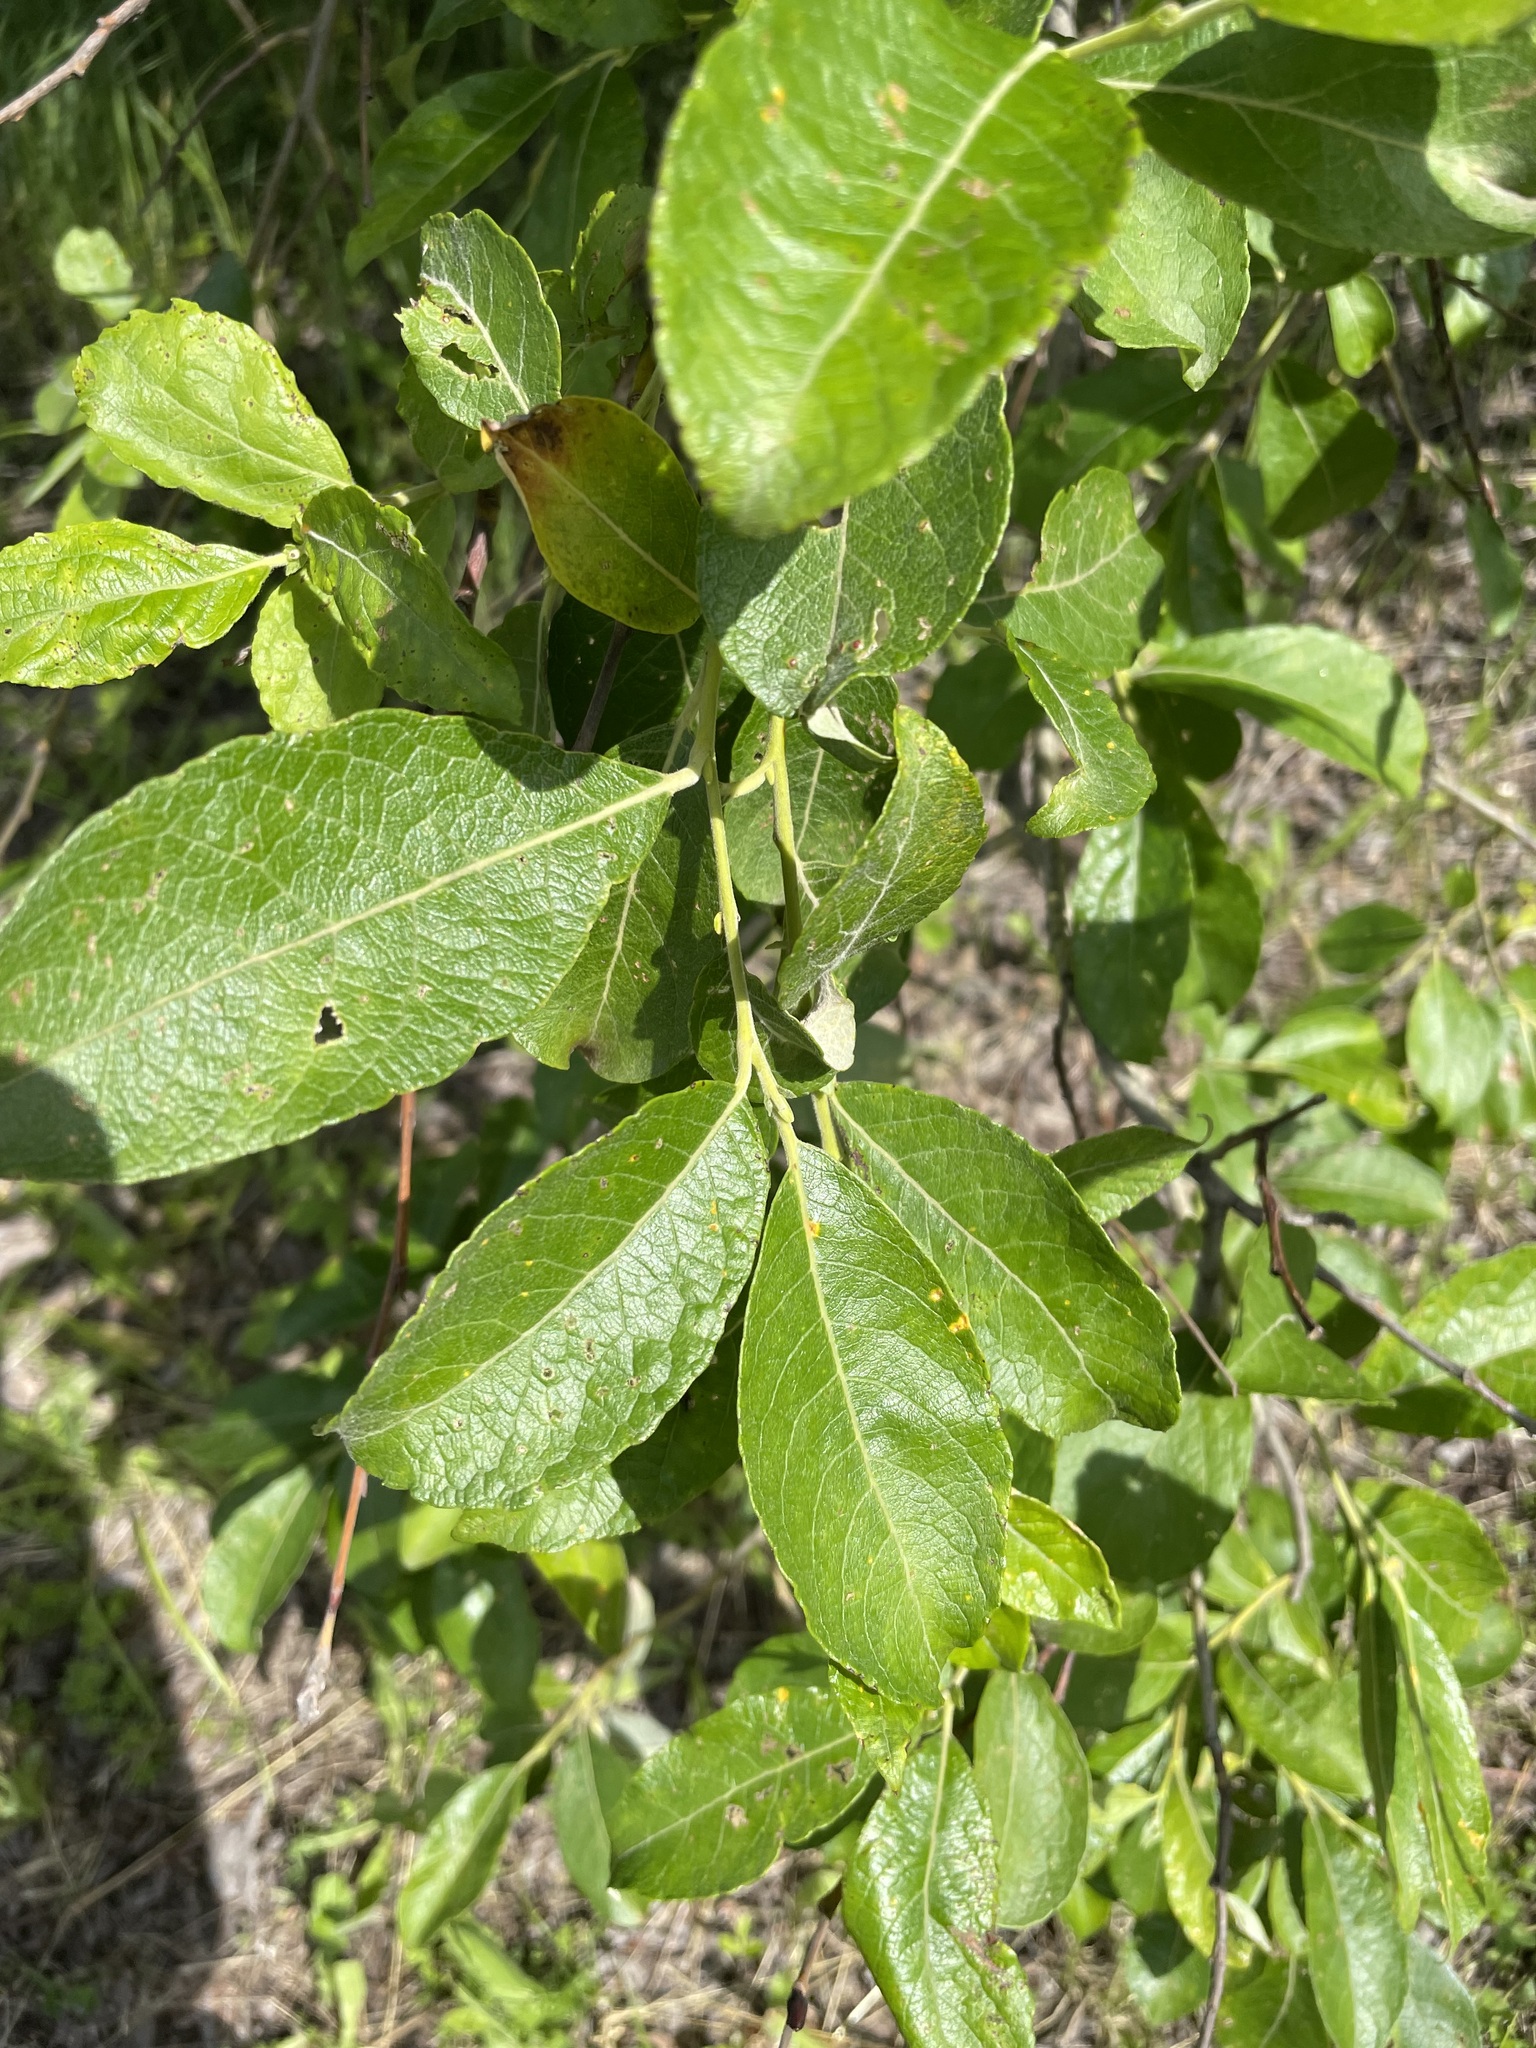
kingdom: Plantae
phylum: Tracheophyta
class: Magnoliopsida
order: Malpighiales
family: Salicaceae
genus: Salix
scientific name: Salix caprea
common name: Goat willow
